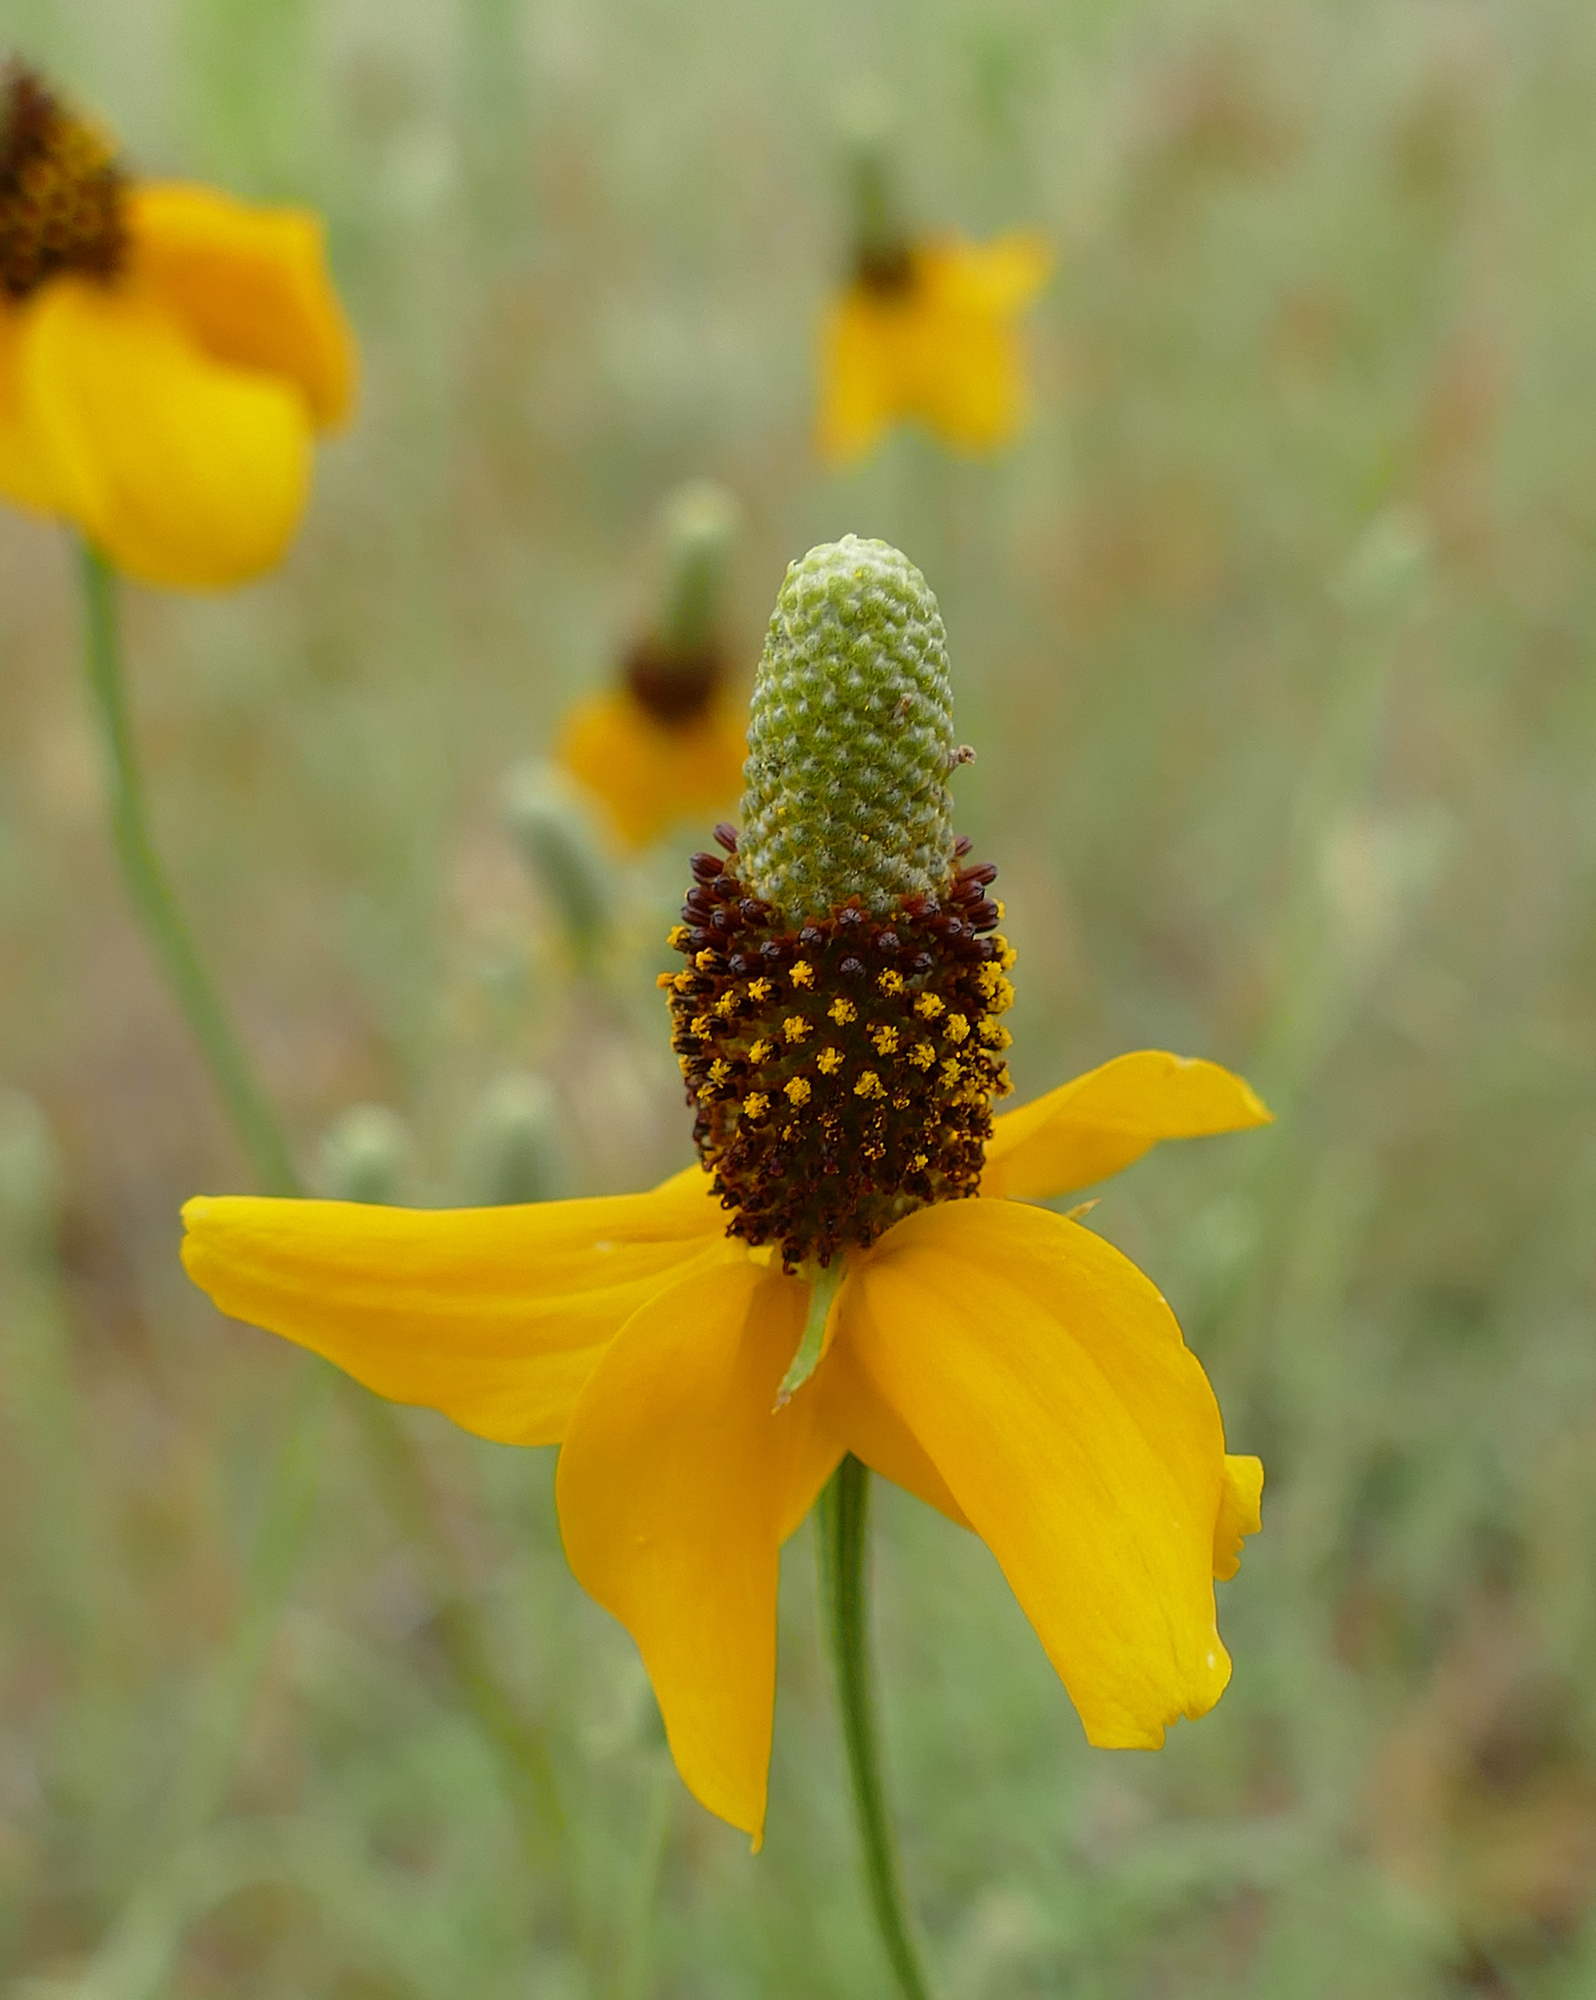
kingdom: Plantae
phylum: Tracheophyta
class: Magnoliopsida
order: Asterales
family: Asteraceae
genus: Ratibida
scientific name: Ratibida columnifera
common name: Prairie coneflower
